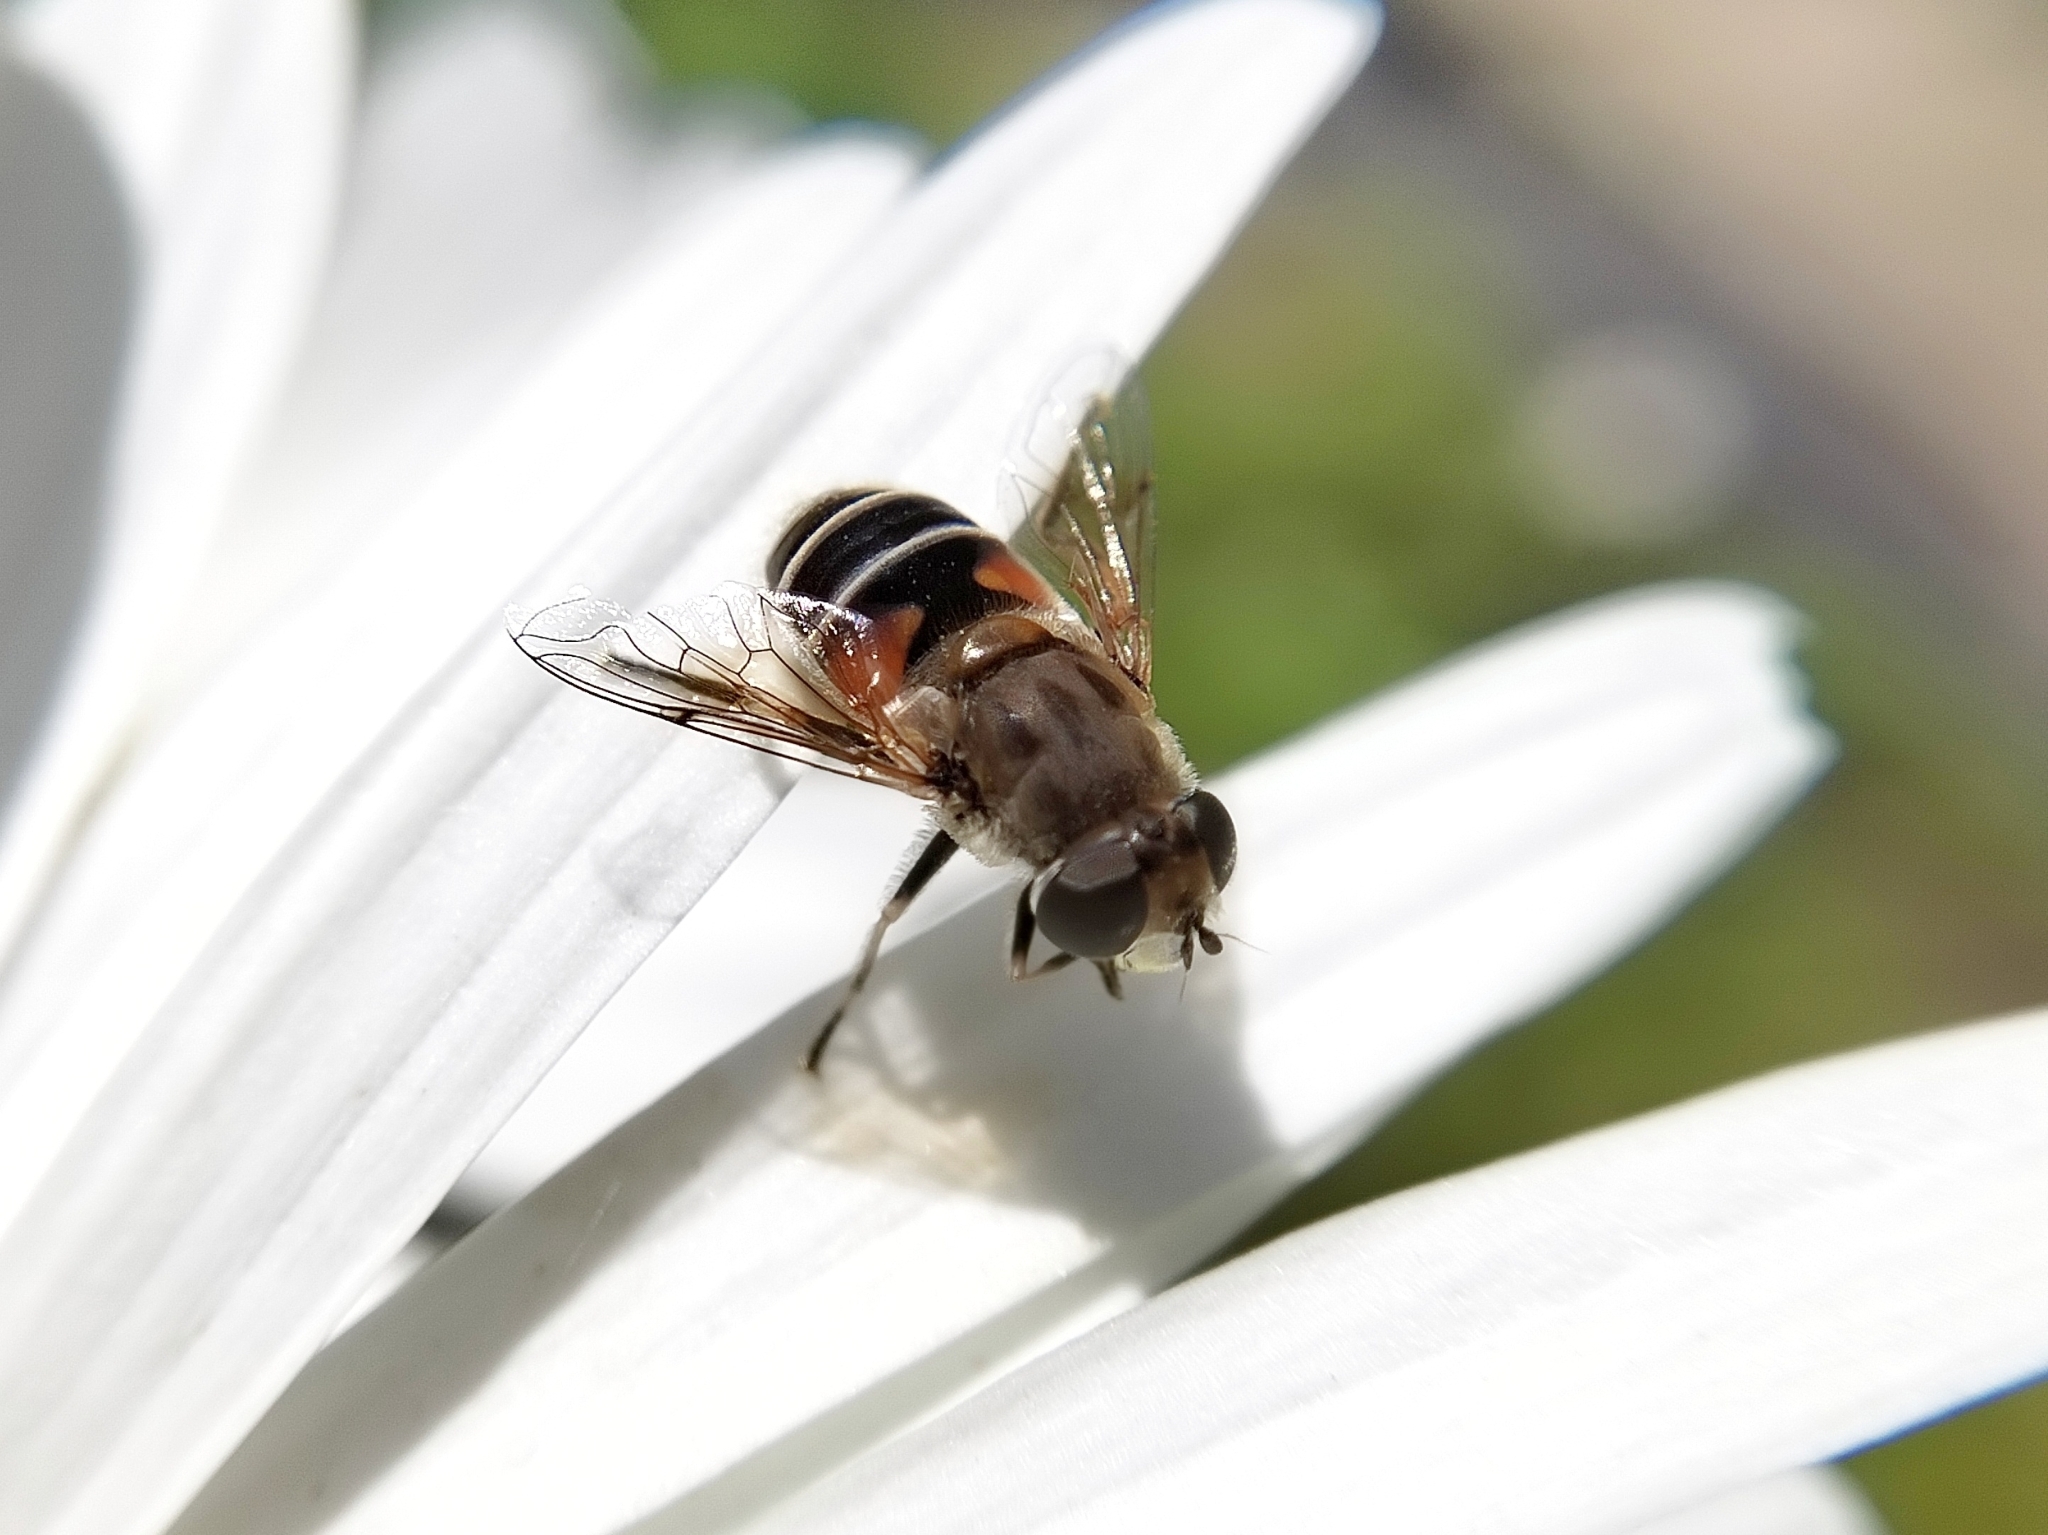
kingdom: Animalia
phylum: Arthropoda
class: Insecta
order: Diptera
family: Syrphidae
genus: Eristalis
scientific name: Eristalis arbustorum
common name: Hover fly
